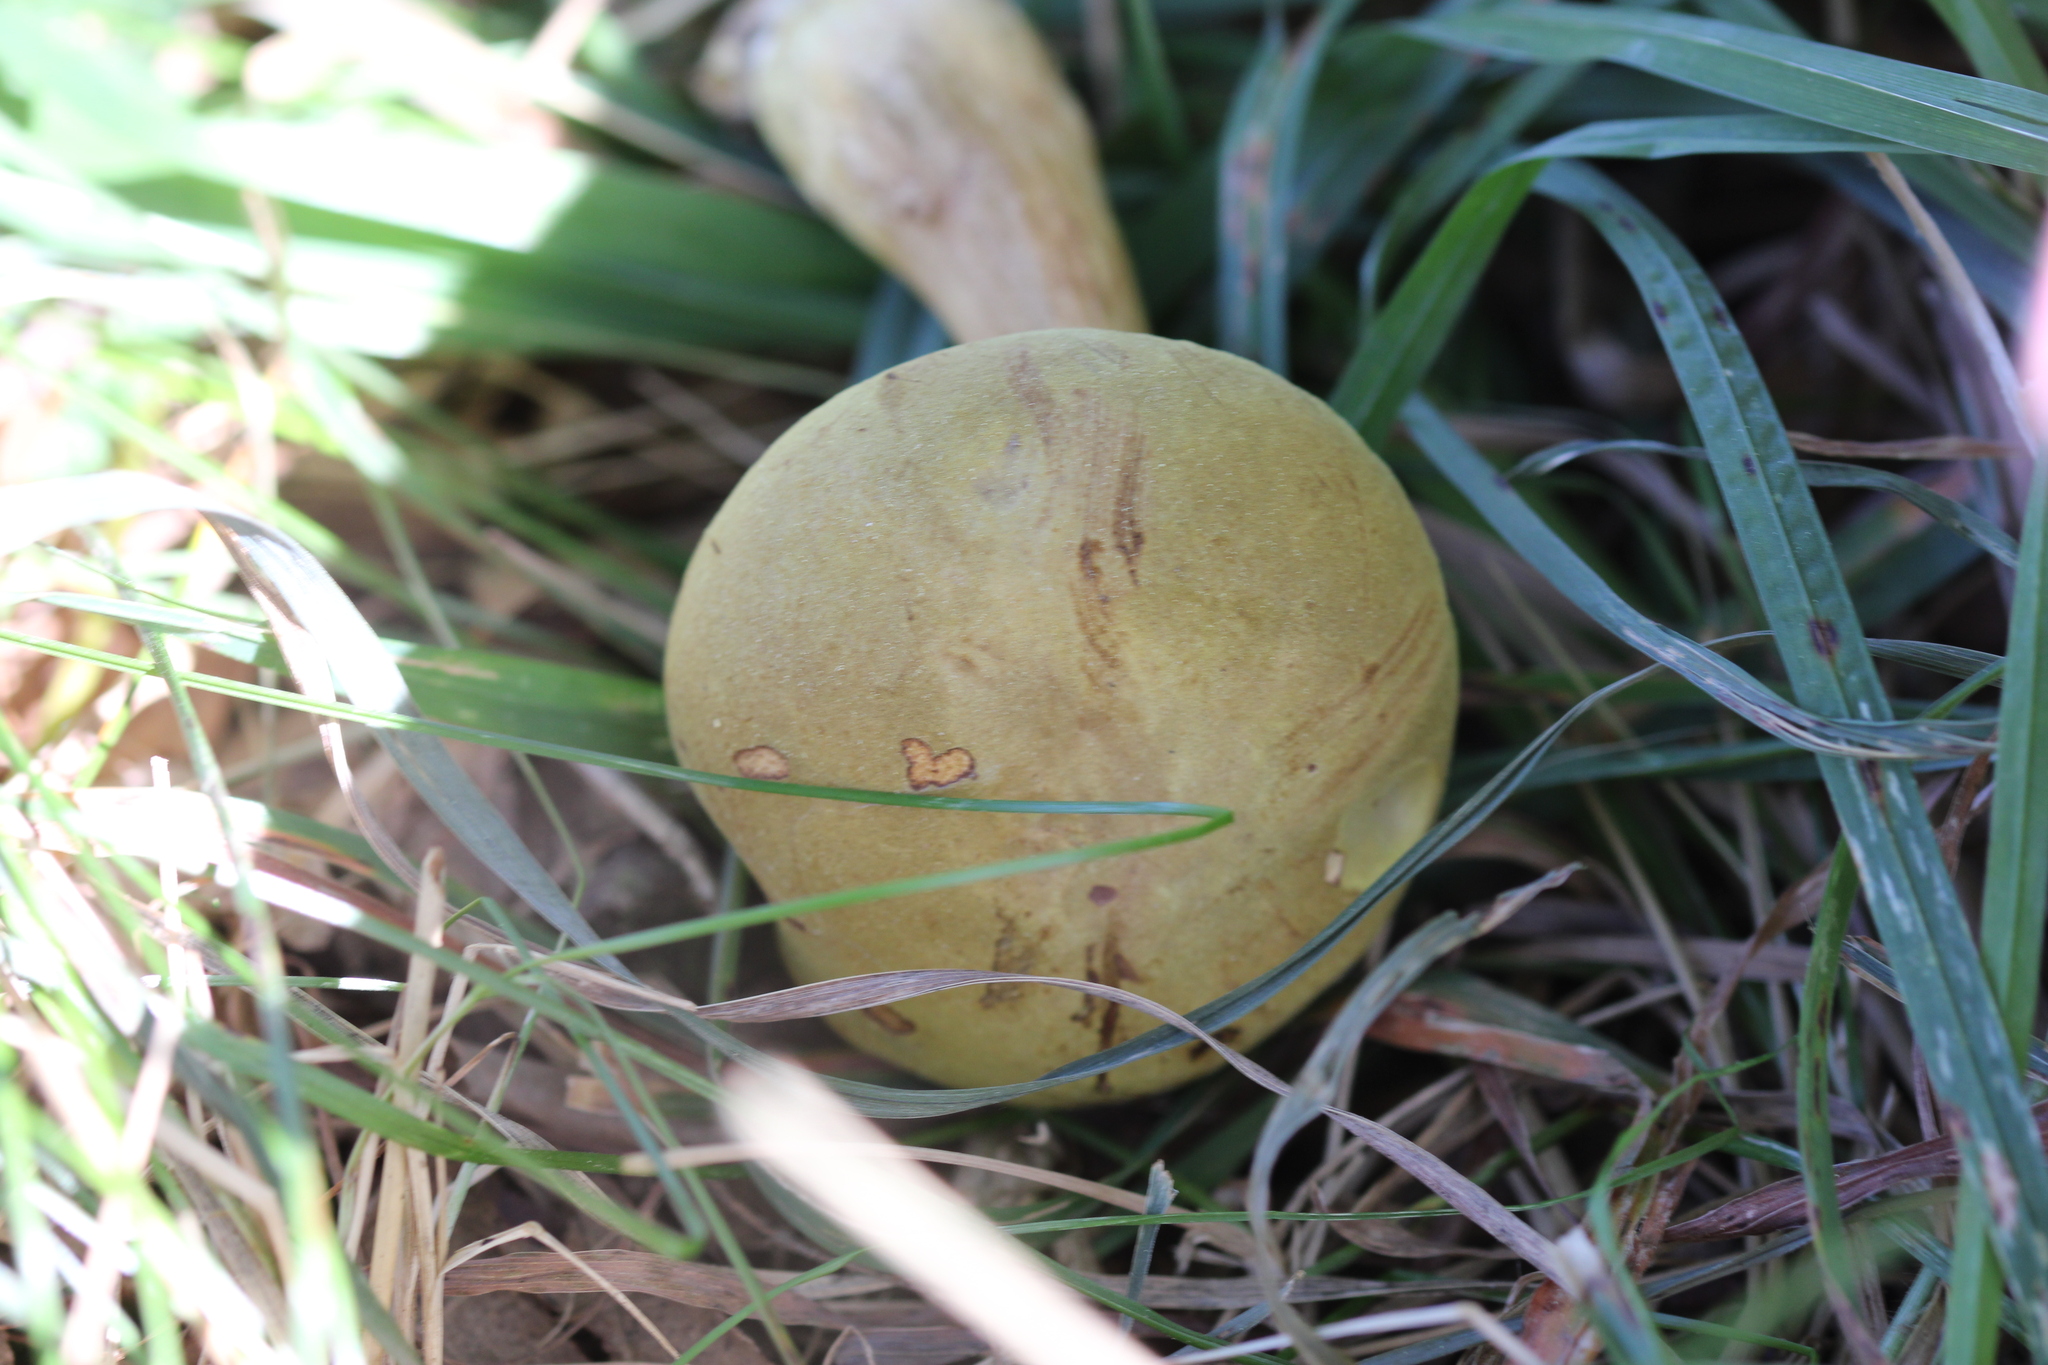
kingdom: Fungi
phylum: Basidiomycota
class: Agaricomycetes
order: Boletales
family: Boletaceae
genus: Xerocomus
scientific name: Xerocomus subtomentosus
